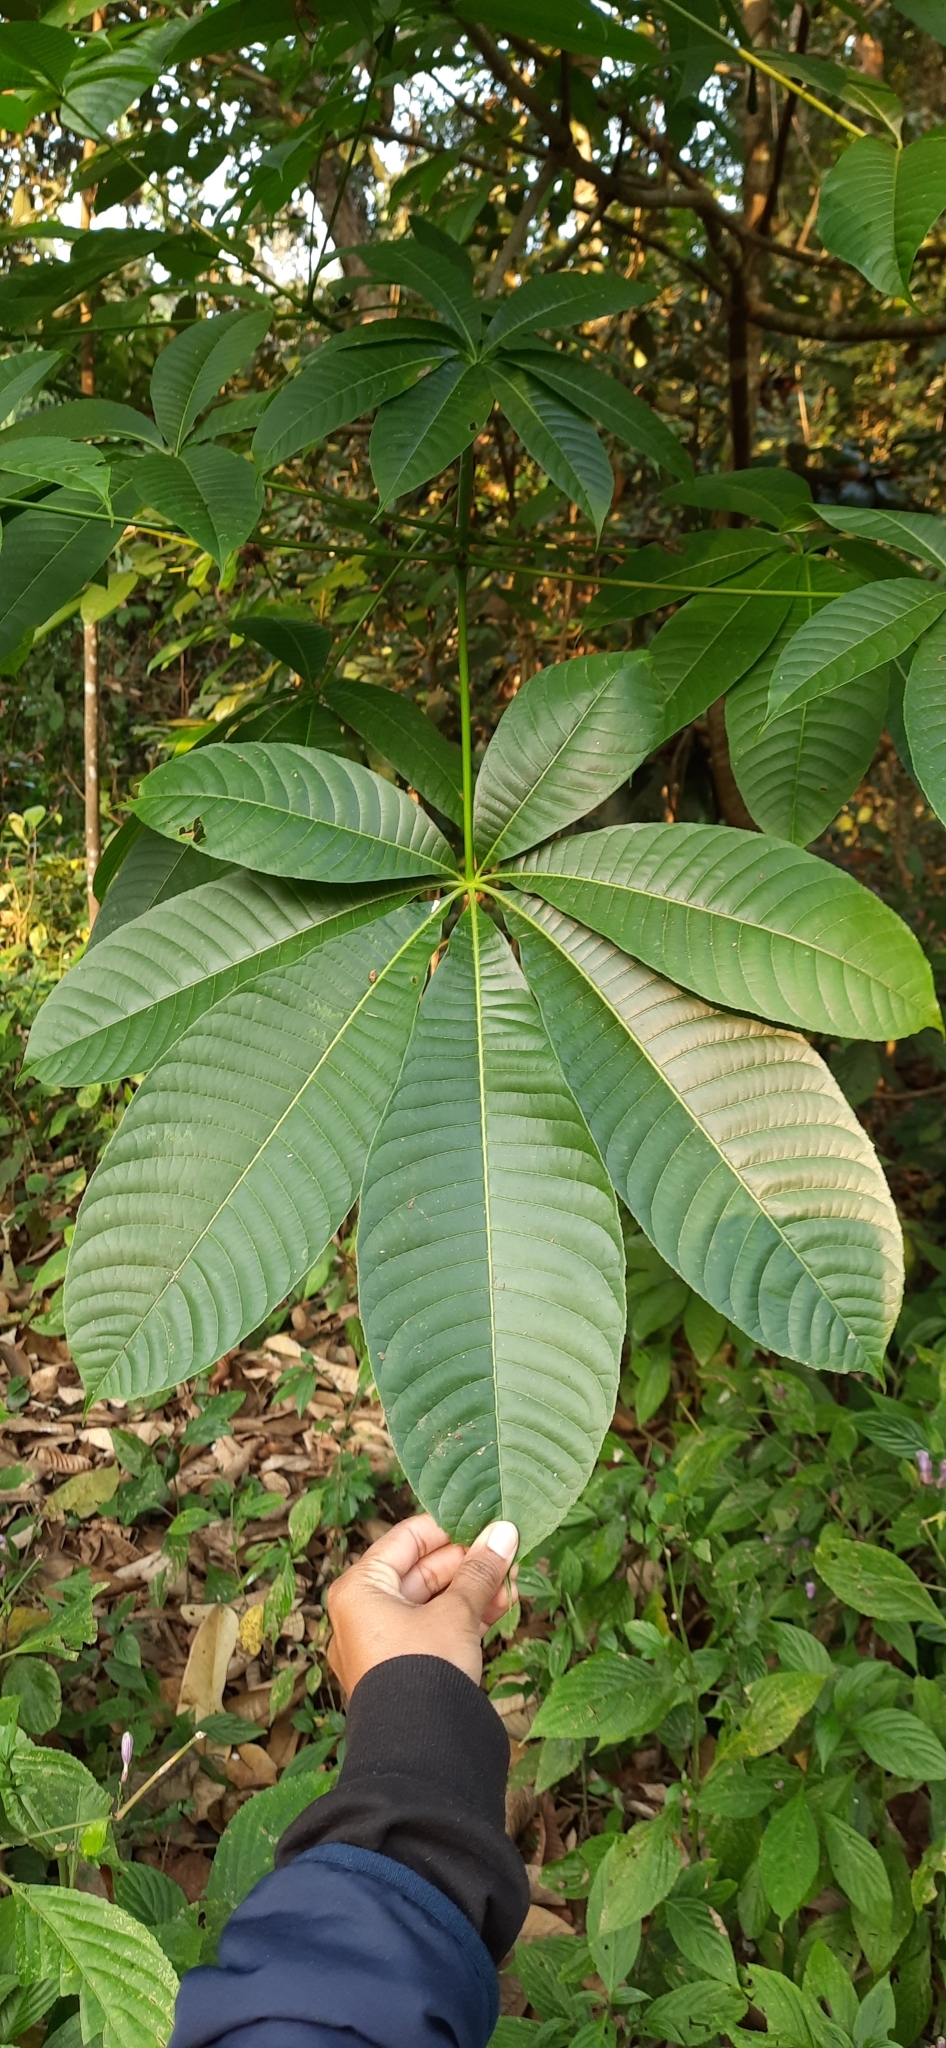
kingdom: Plantae
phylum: Tracheophyta
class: Magnoliopsida
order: Sapindales
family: Sapindaceae
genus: Aesculus
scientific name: Aesculus assamica
